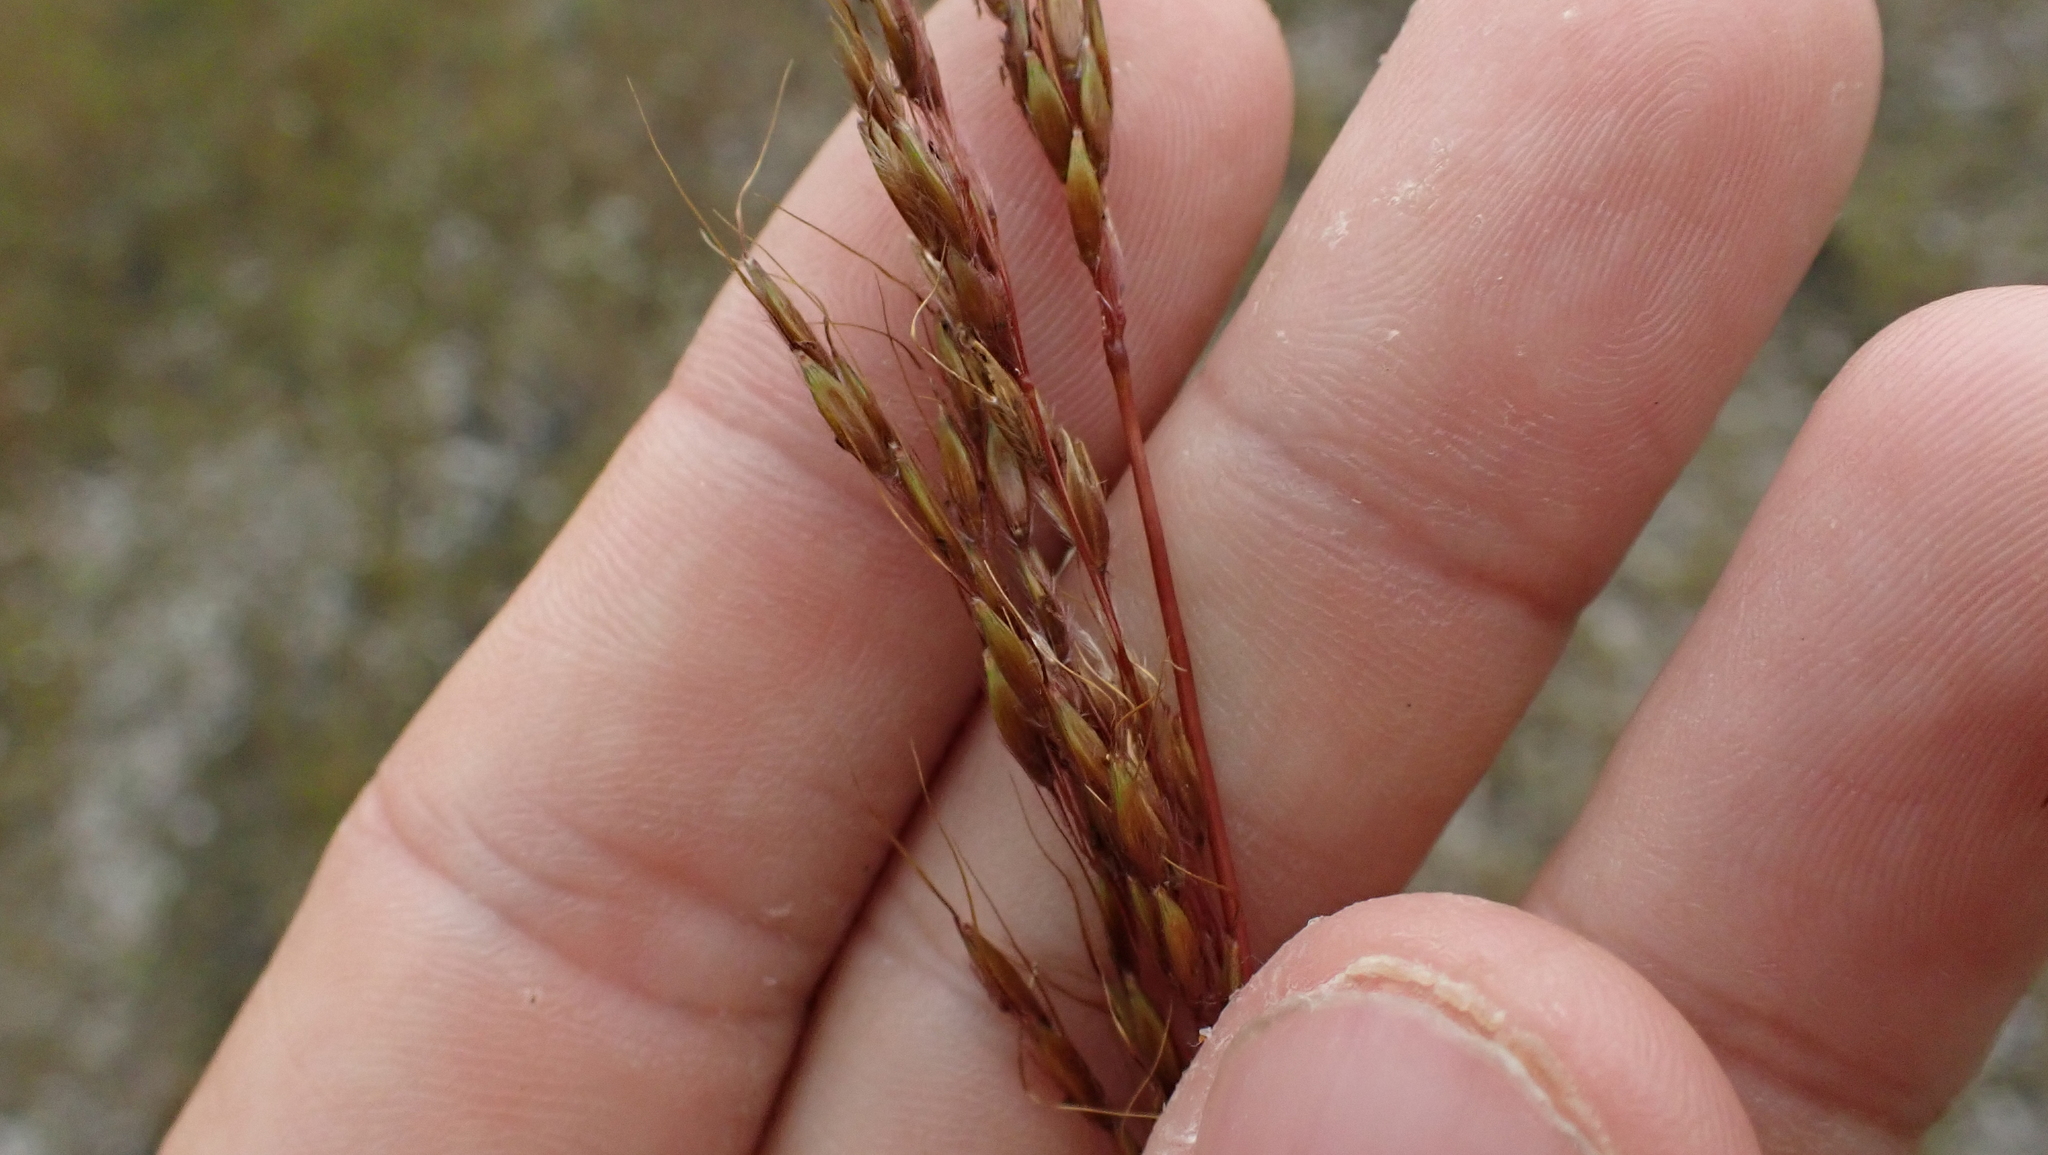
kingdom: Plantae
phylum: Tracheophyta
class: Liliopsida
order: Poales
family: Poaceae
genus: Sorghastrum
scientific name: Sorghastrum nutans
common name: Indian grass
